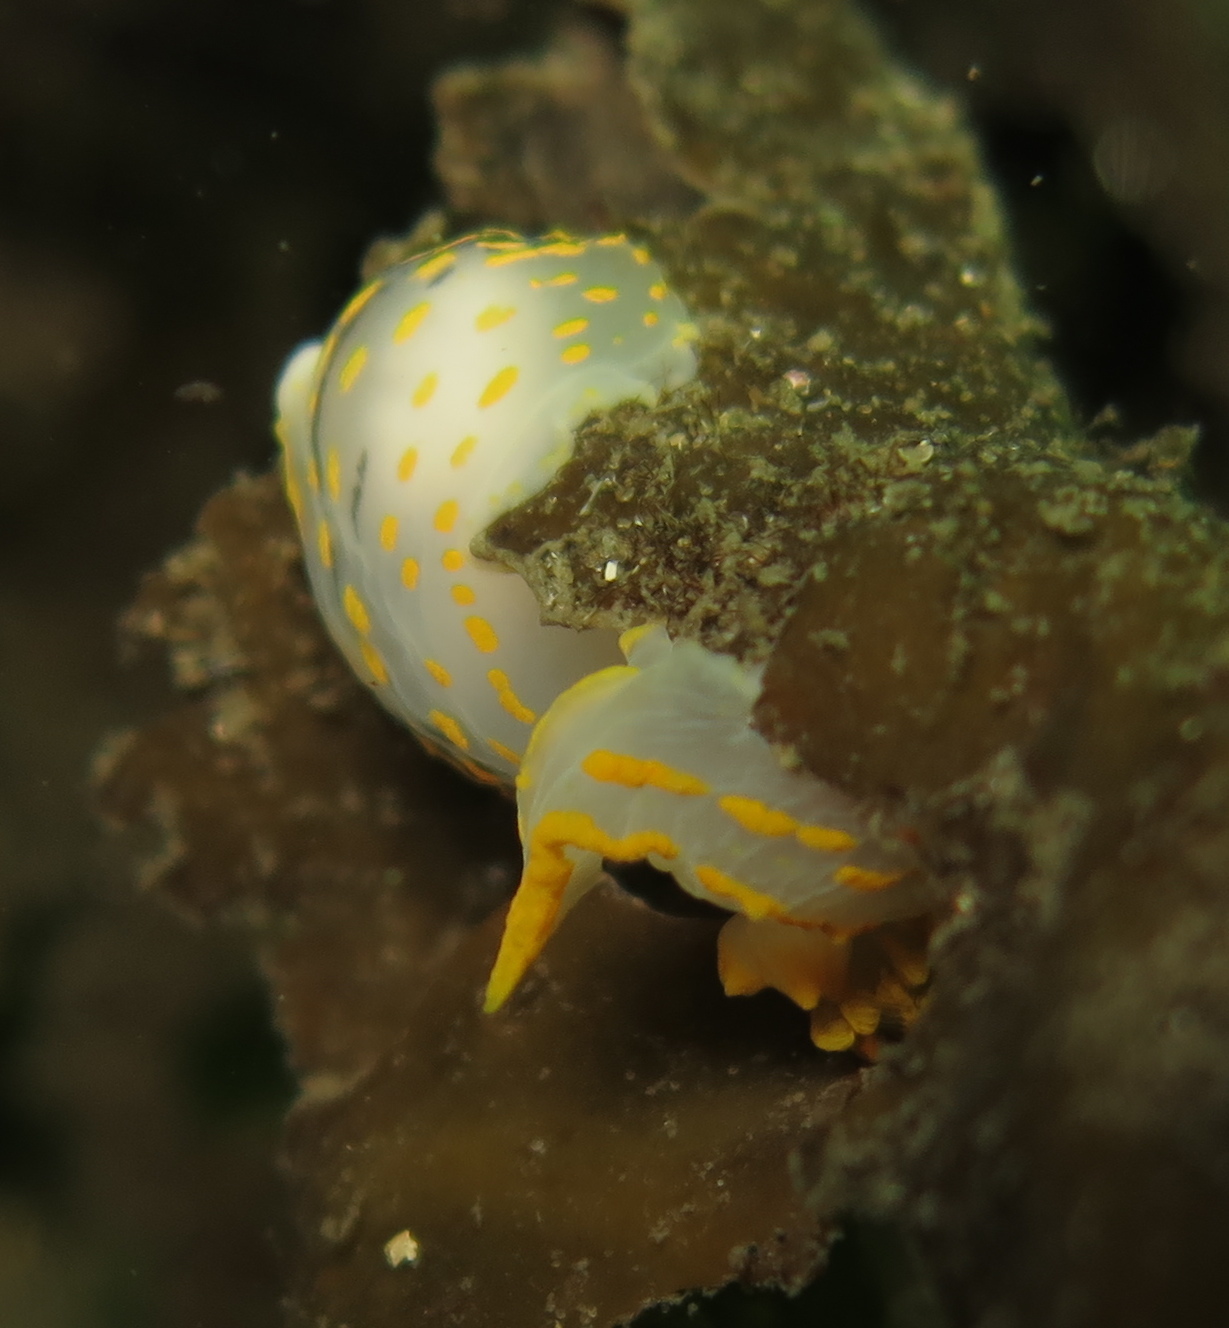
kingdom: Animalia
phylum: Mollusca
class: Gastropoda
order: Nudibranchia
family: Polyceridae
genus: Polycera
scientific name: Polycera quadrilineata
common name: Four-striped polycera
